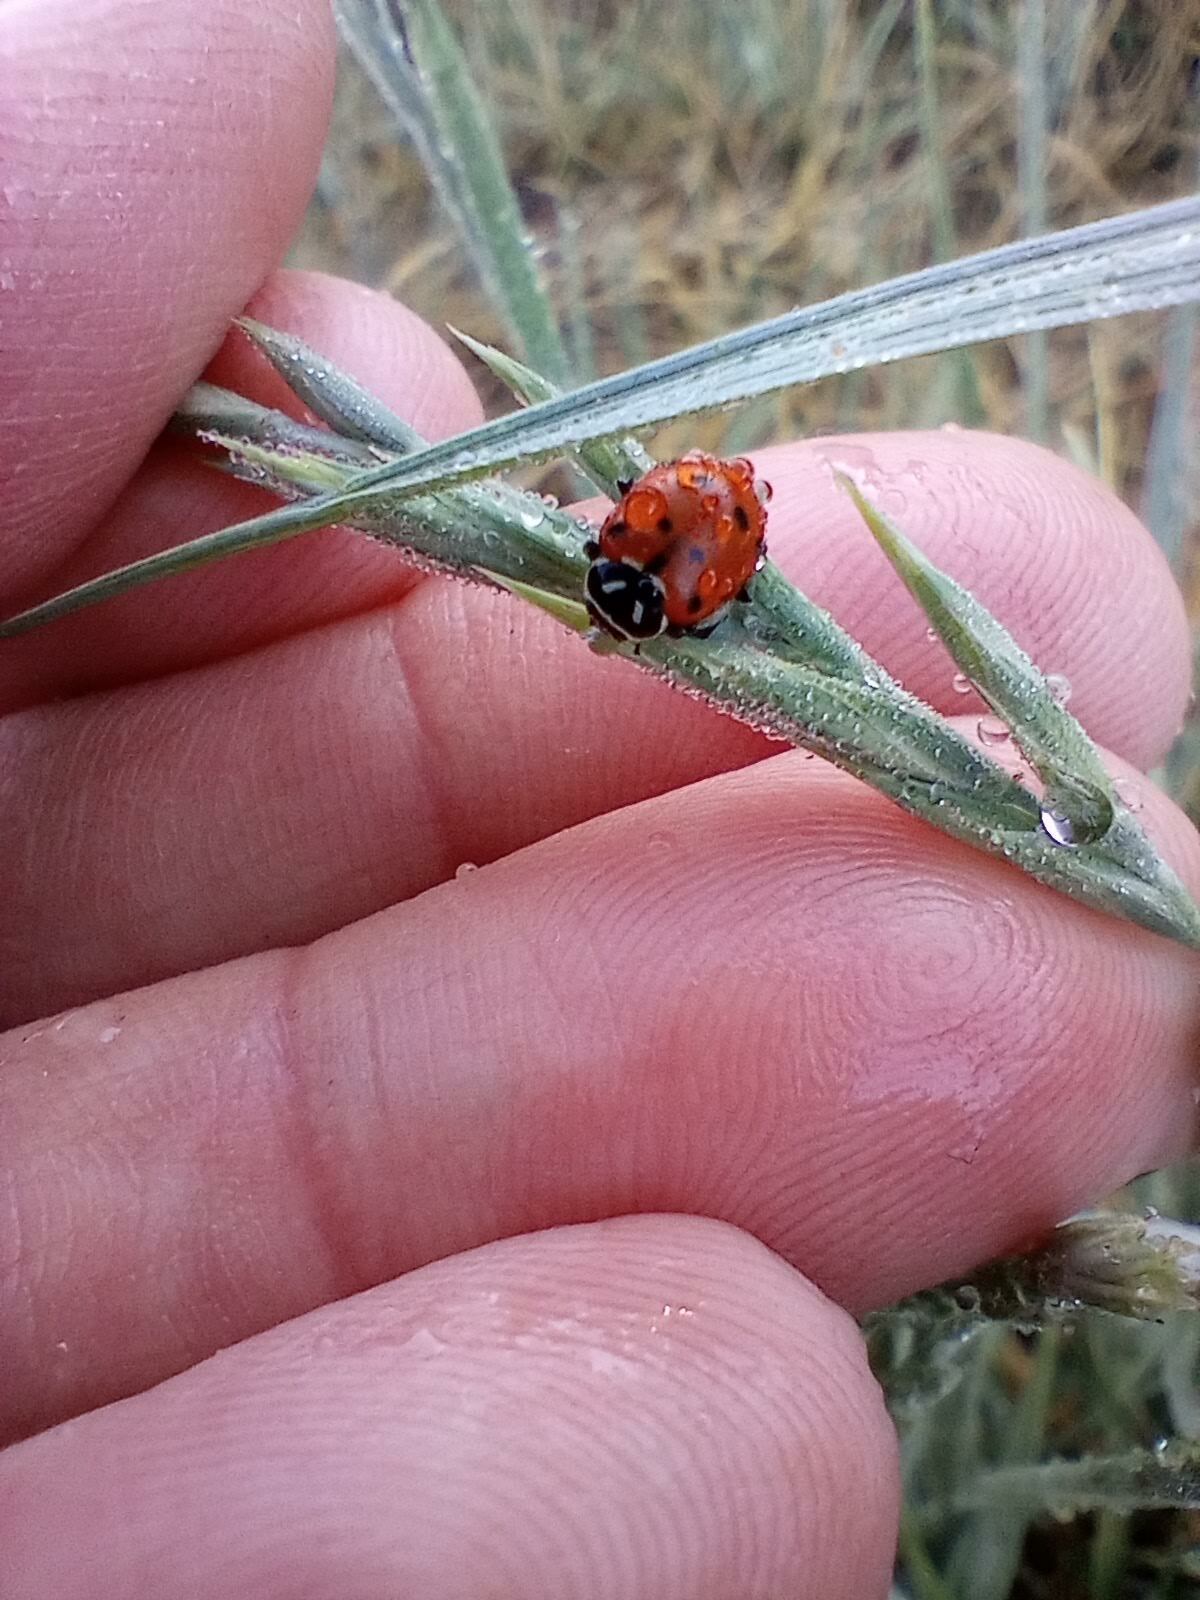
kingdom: Animalia
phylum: Arthropoda
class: Insecta
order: Coleoptera
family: Coccinellidae
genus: Hippodamia
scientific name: Hippodamia convergens
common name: Convergent lady beetle
